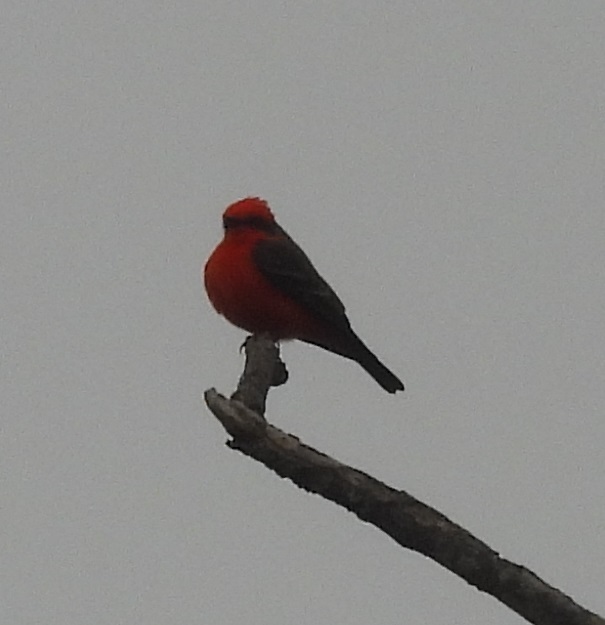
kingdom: Animalia
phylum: Chordata
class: Aves
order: Passeriformes
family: Tyrannidae
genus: Pyrocephalus
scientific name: Pyrocephalus rubinus
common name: Vermilion flycatcher
